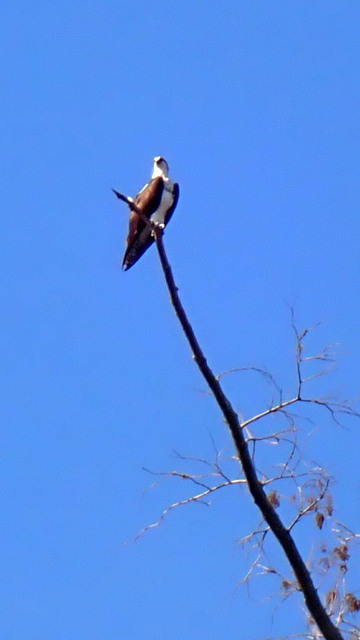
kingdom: Animalia
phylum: Chordata
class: Aves
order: Accipitriformes
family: Pandionidae
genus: Pandion
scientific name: Pandion haliaetus
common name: Osprey
